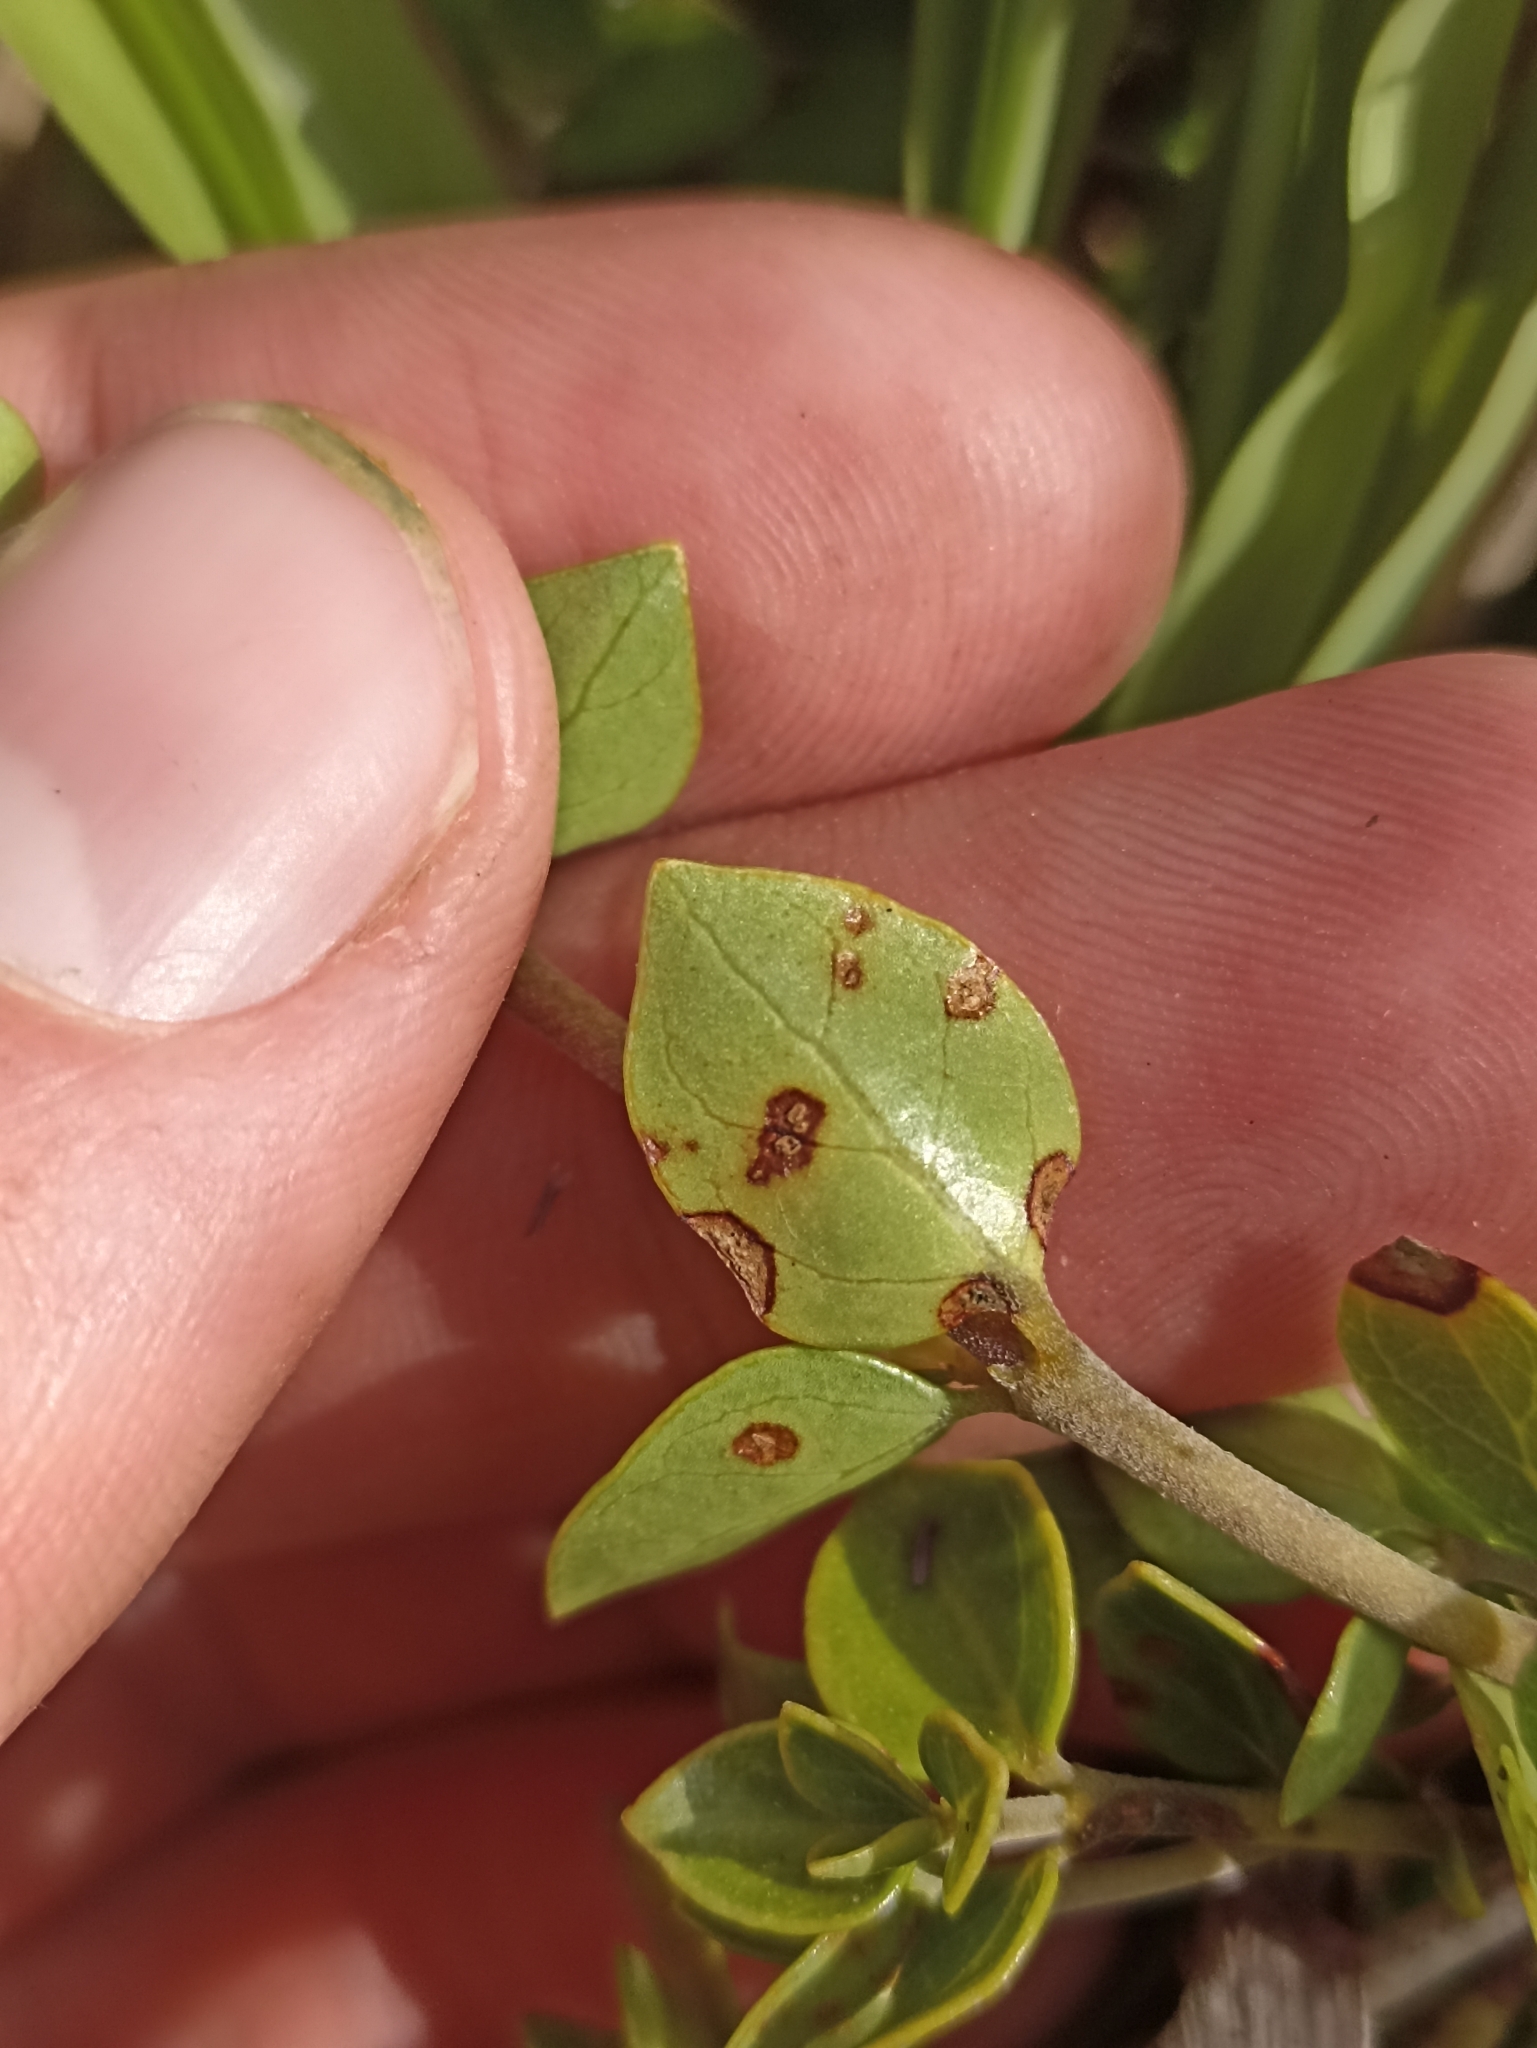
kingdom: Plantae
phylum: Tracheophyta
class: Magnoliopsida
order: Gentianales
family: Rubiaceae
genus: Coprosma
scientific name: Coprosma neglecta
